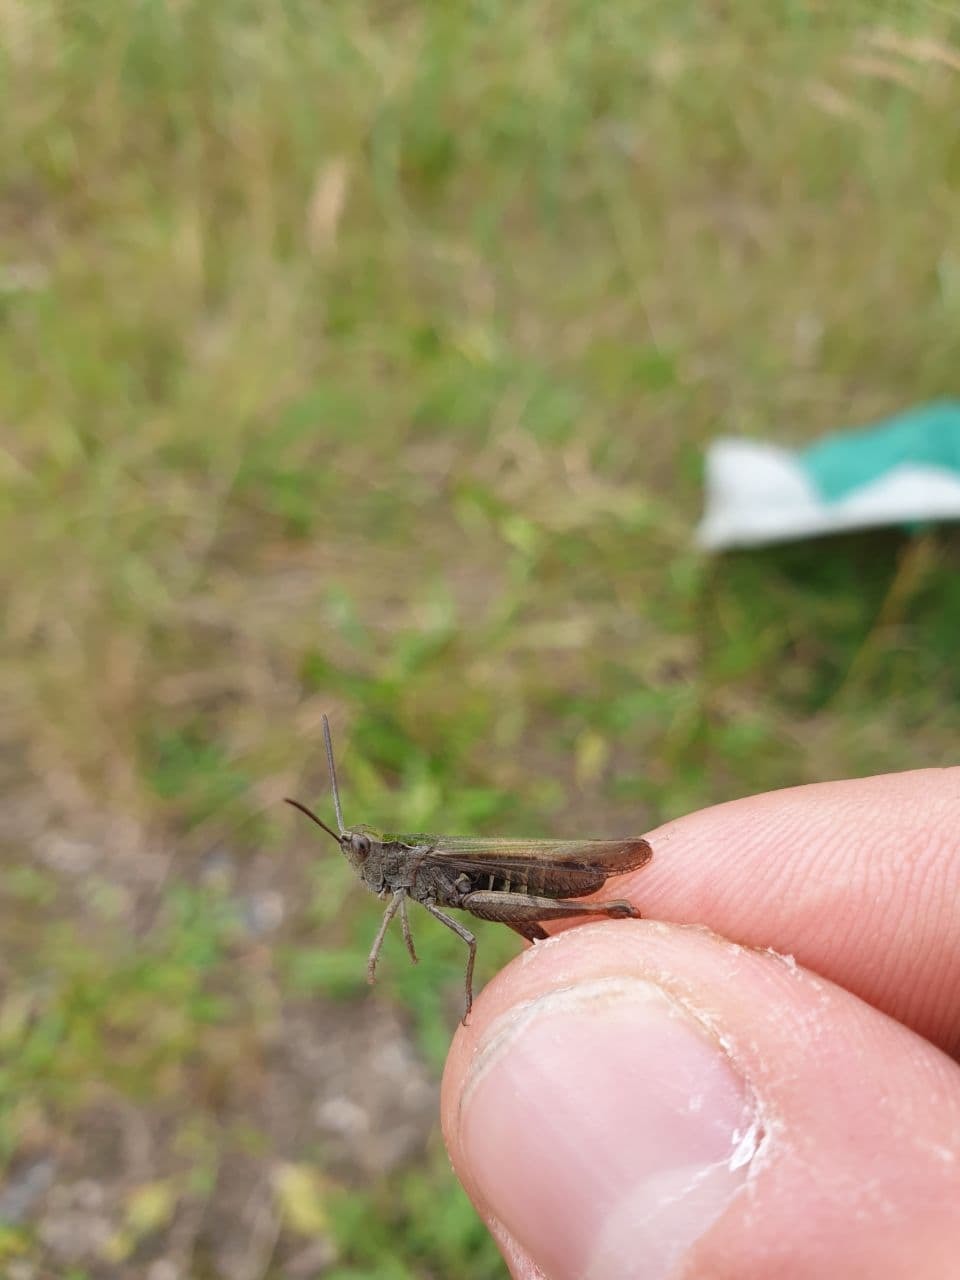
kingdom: Animalia
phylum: Arthropoda
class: Insecta
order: Orthoptera
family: Acrididae
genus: Chorthippus
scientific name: Chorthippus biguttulus
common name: Bow-winged grasshopper
